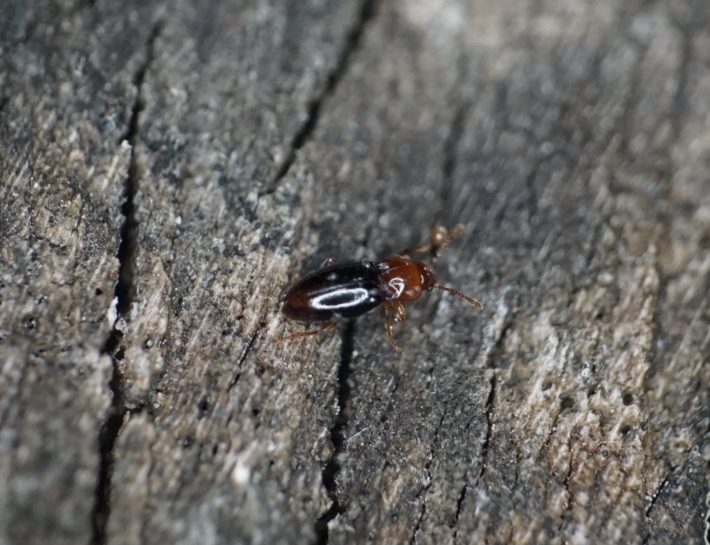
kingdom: Animalia
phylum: Arthropoda
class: Insecta
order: Coleoptera
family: Endomychidae
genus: Rhanidea
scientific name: Rhanidea unicolor
